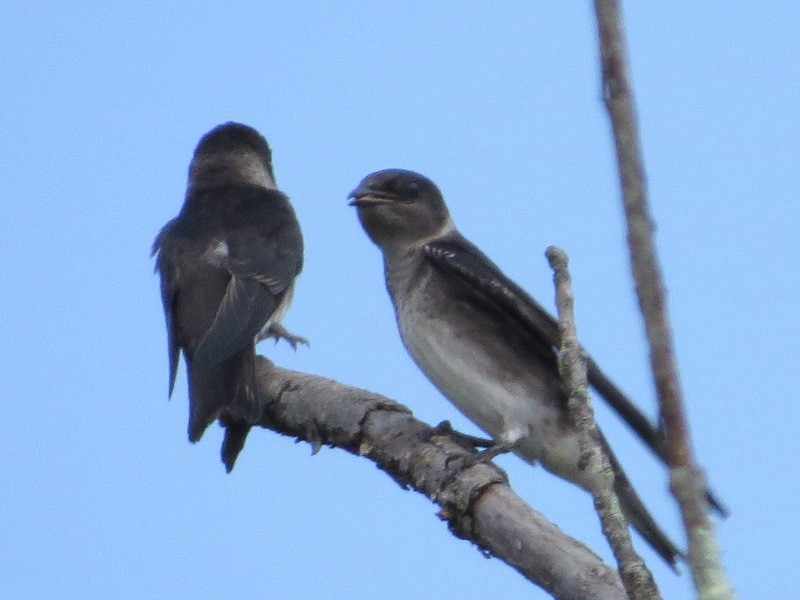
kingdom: Animalia
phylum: Chordata
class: Aves
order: Passeriformes
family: Hirundinidae
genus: Progne
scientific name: Progne subis
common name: Purple martin
